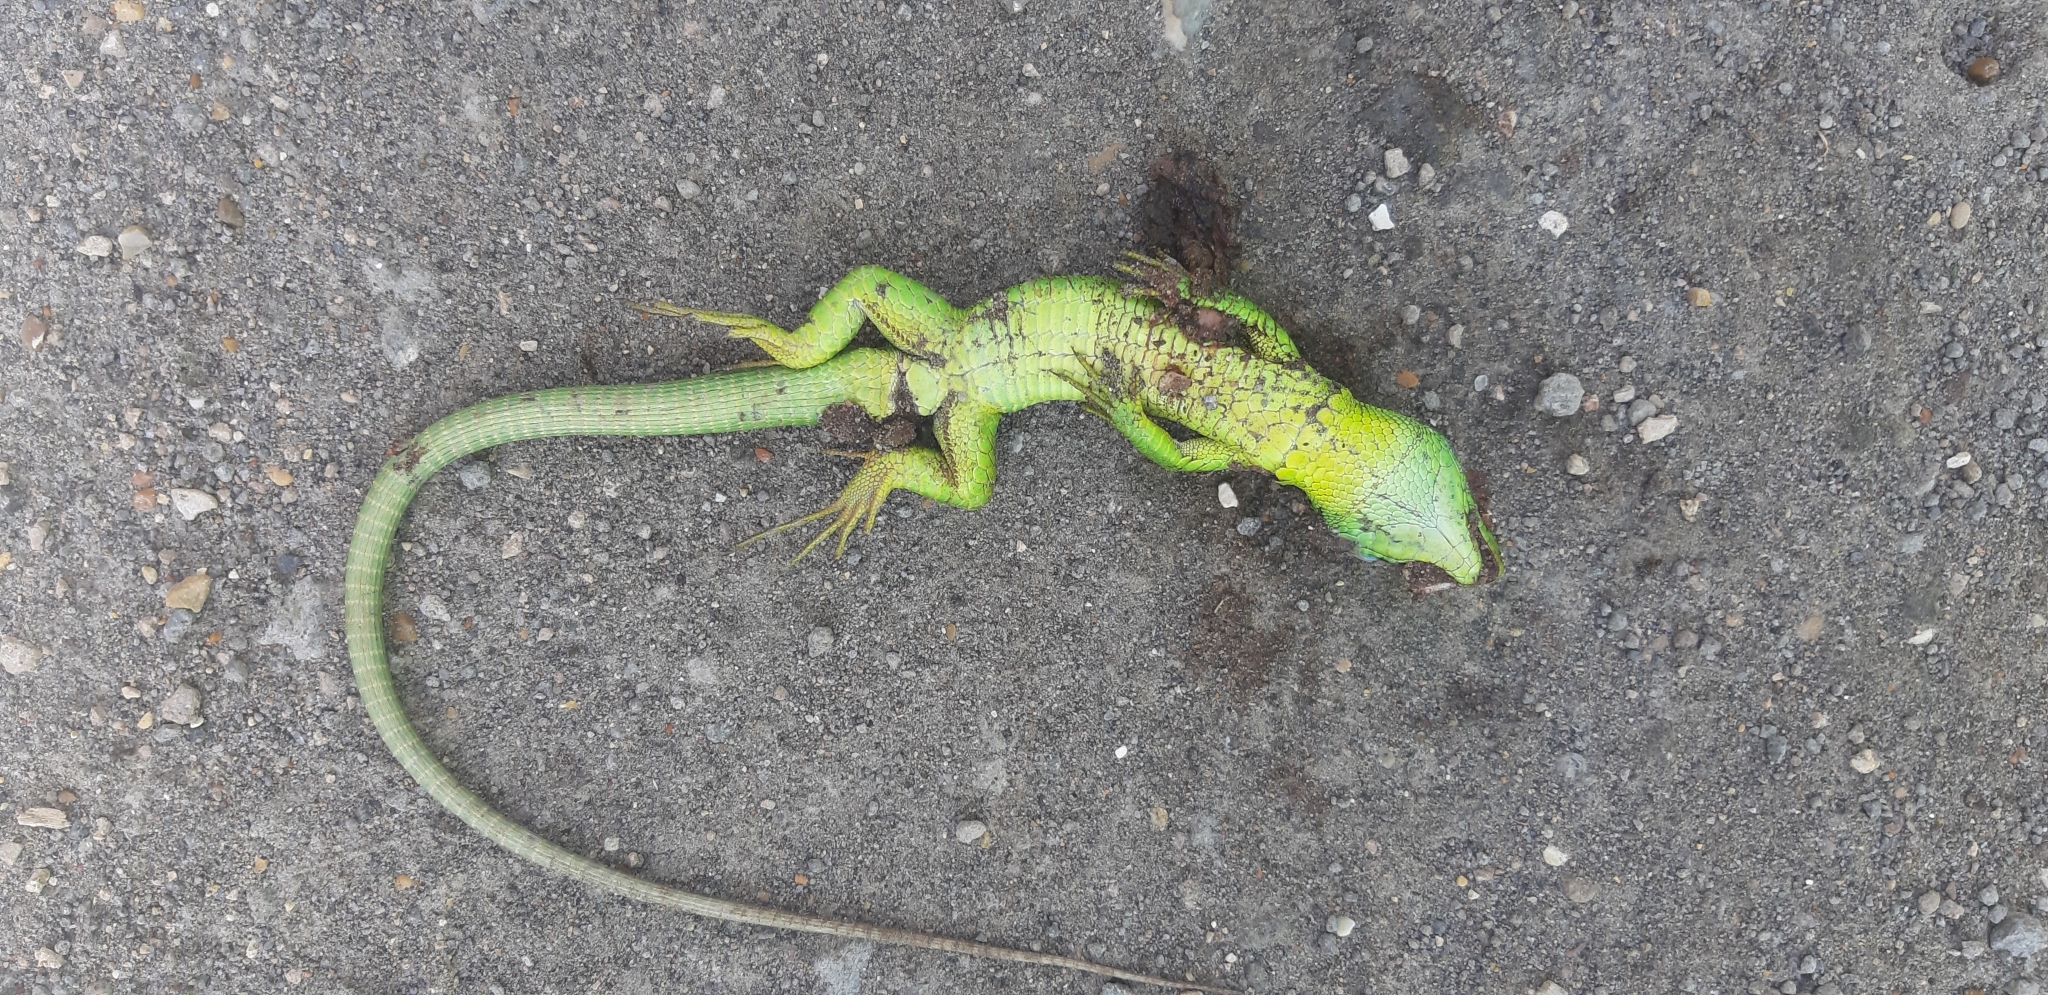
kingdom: Animalia
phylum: Chordata
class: Squamata
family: Lacertidae
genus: Lacerta
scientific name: Lacerta bilineata
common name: Western green lizard
